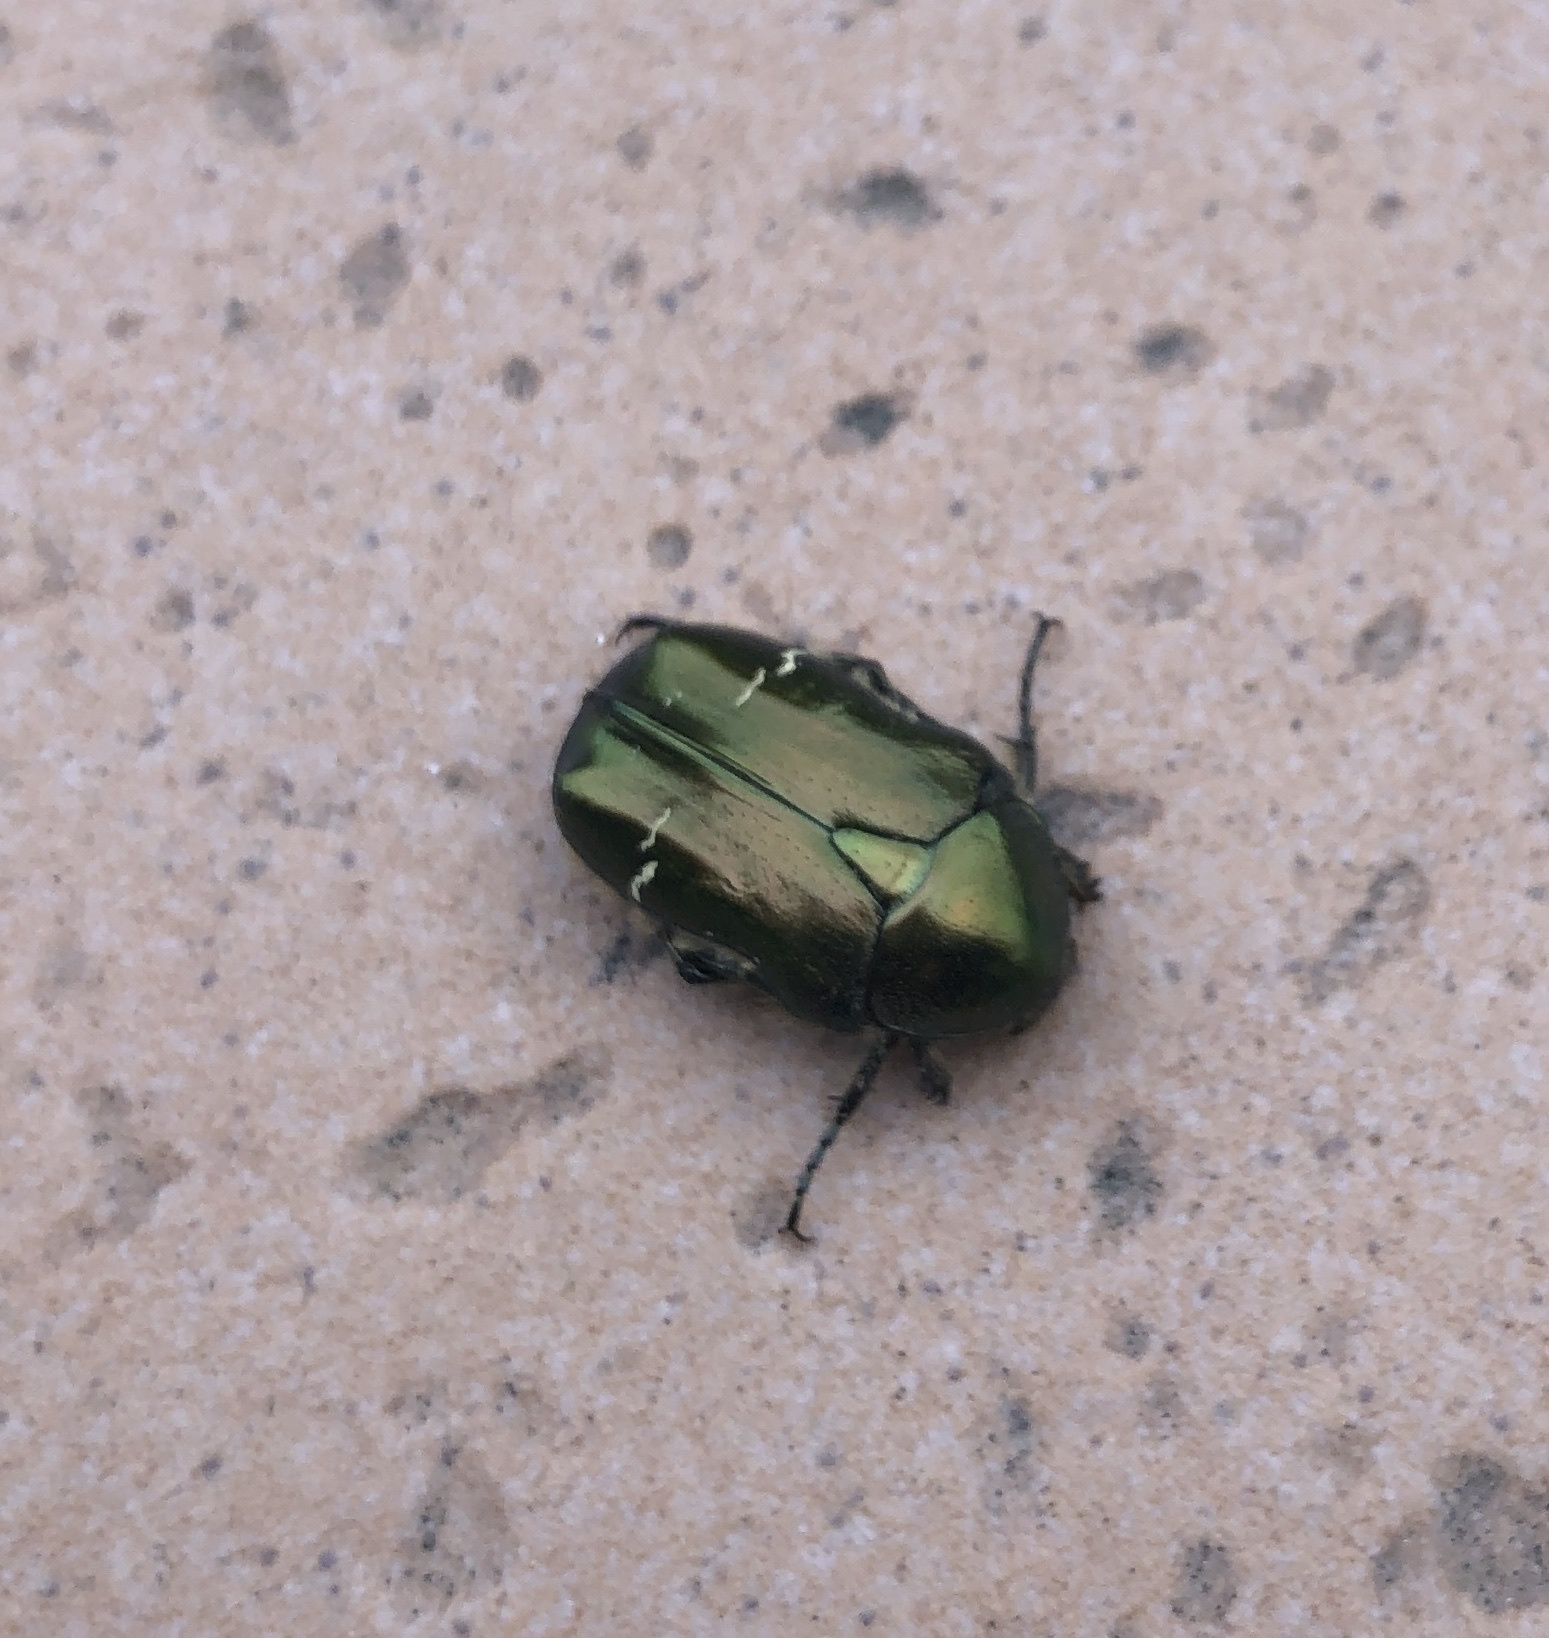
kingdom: Animalia
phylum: Arthropoda
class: Insecta
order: Coleoptera
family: Scarabaeidae
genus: Cetonia
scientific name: Cetonia aurata
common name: Rose chafer
